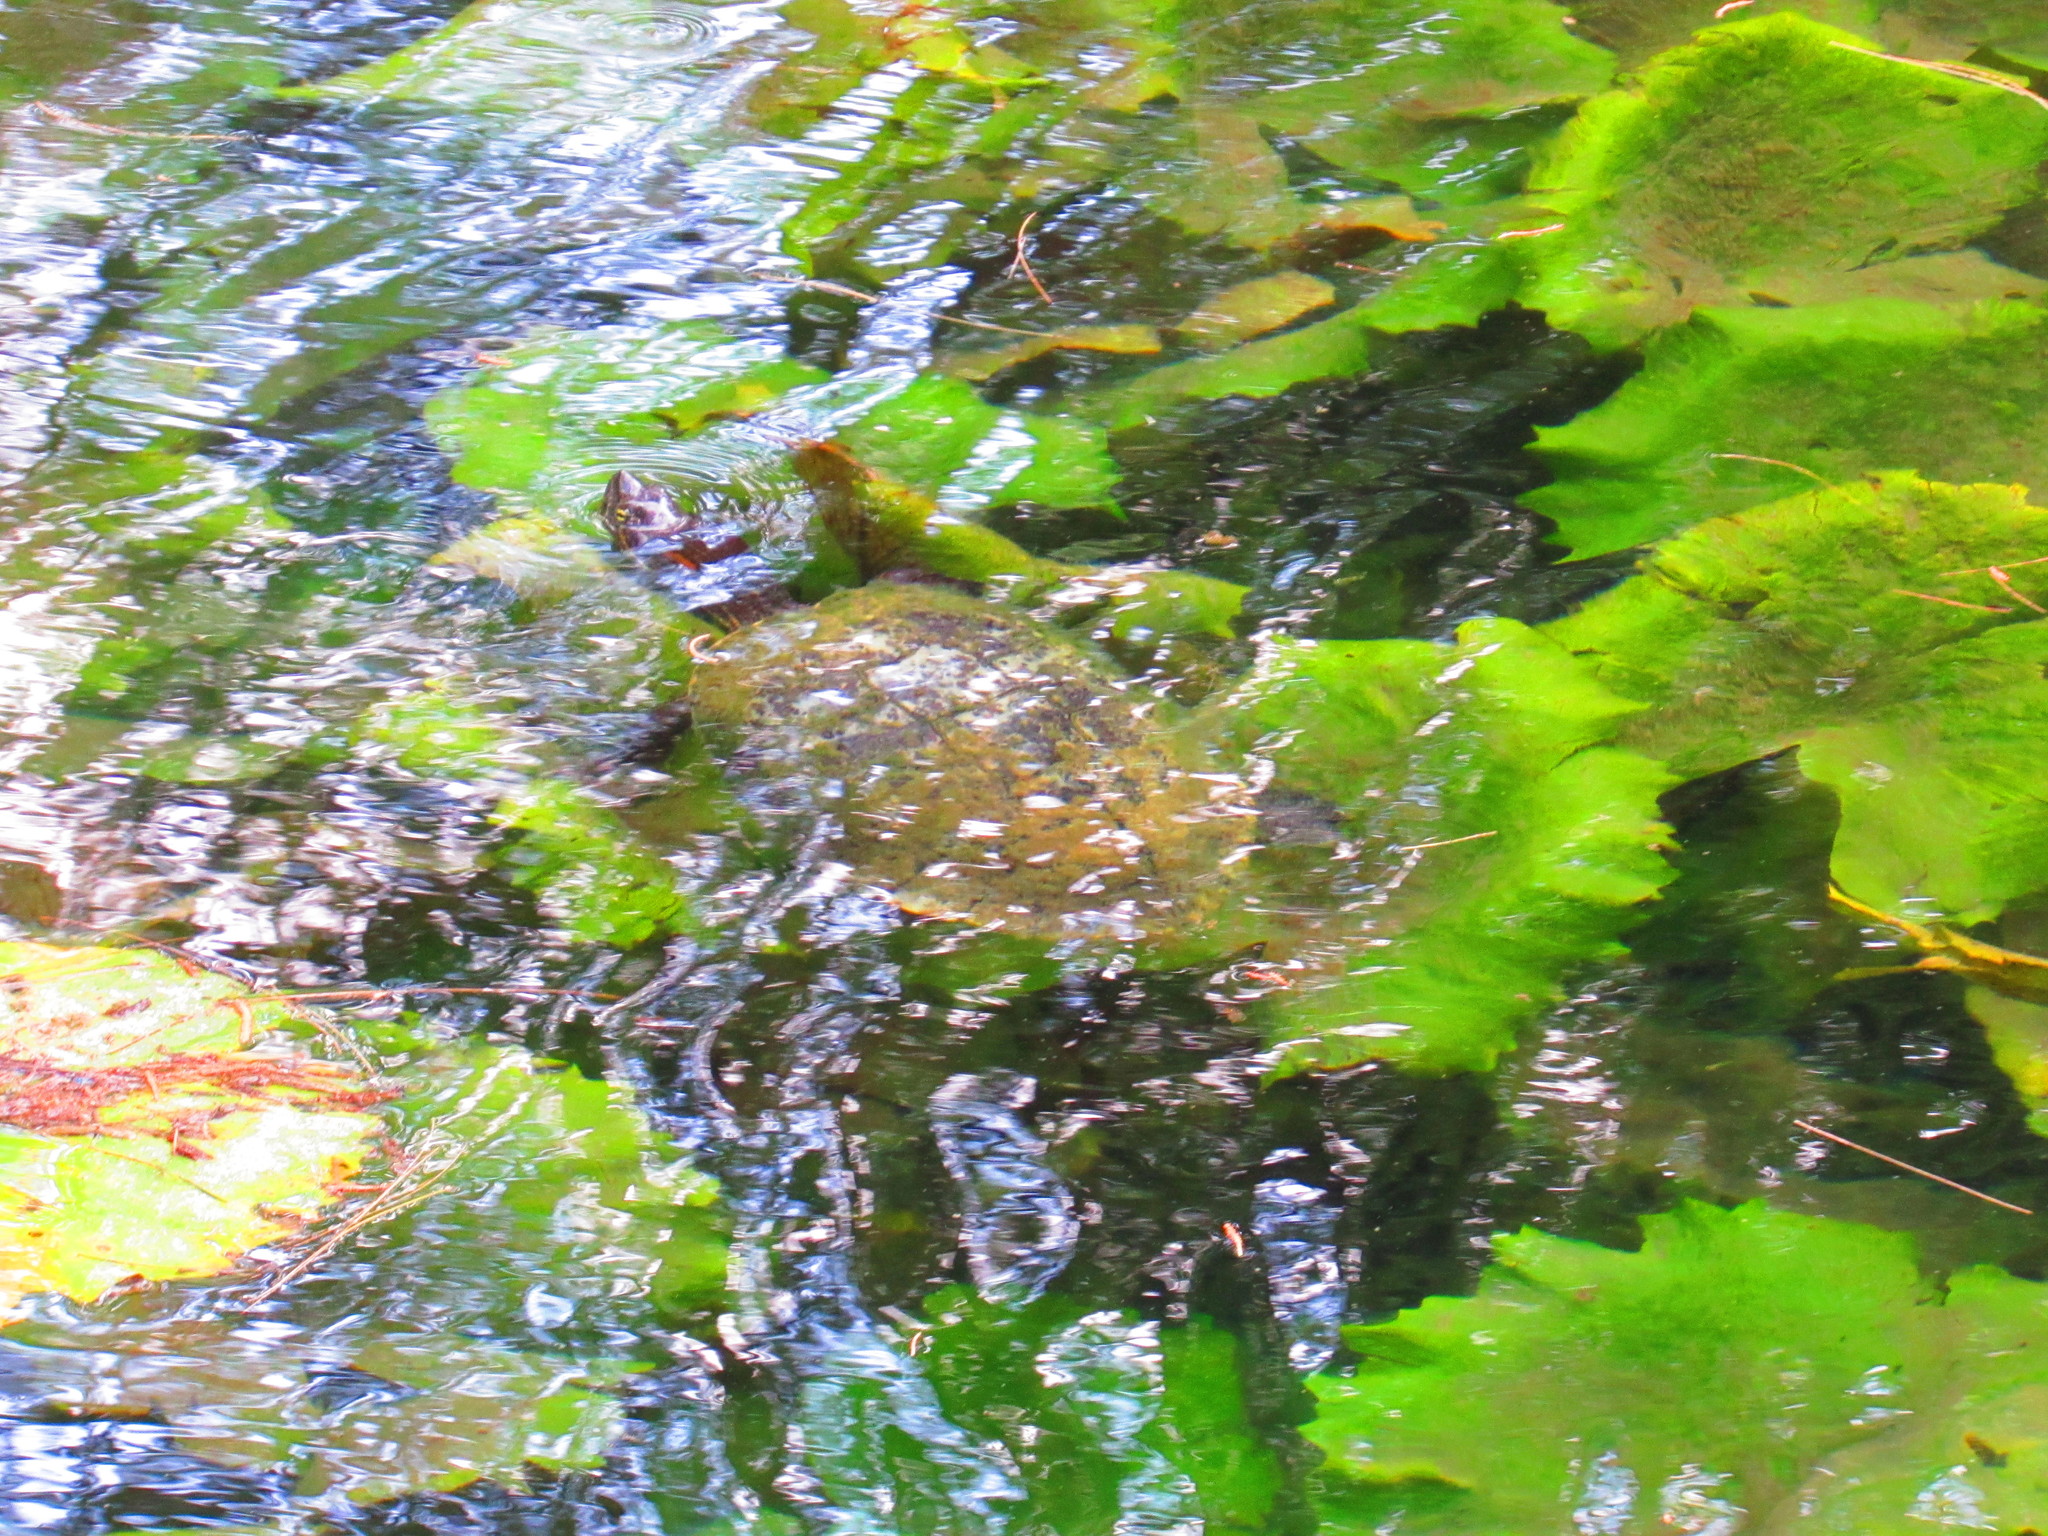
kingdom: Animalia
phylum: Chordata
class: Testudines
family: Emydidae
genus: Trachemys
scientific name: Trachemys scripta
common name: Slider
